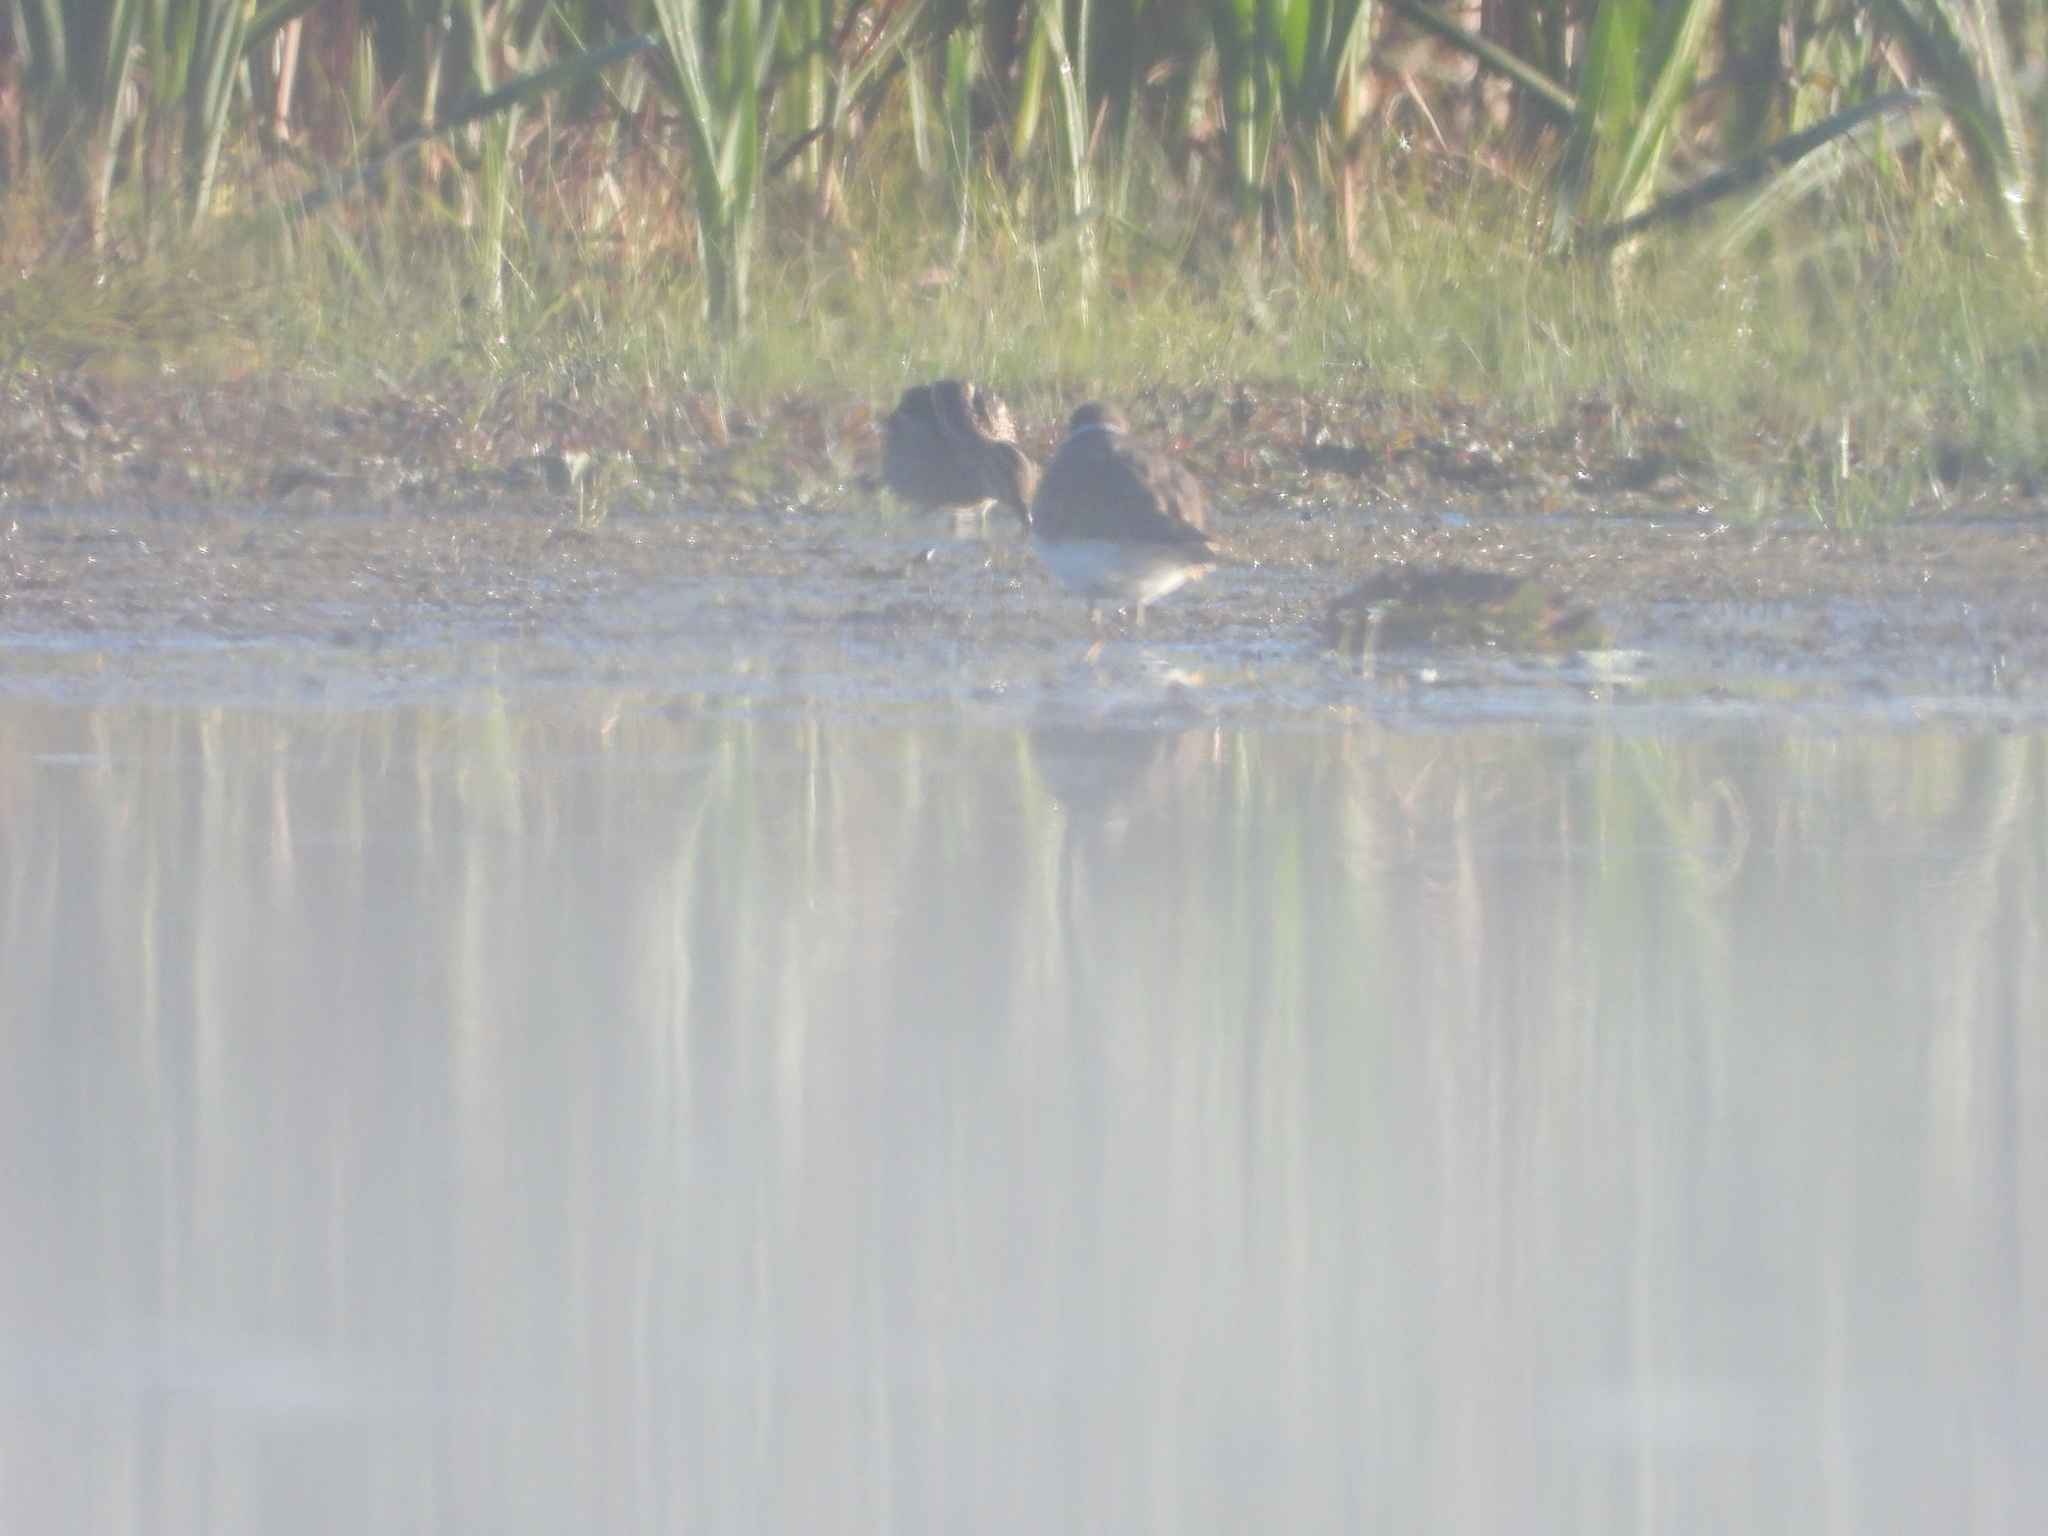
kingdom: Animalia
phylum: Chordata
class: Aves
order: Charadriiformes
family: Scolopacidae
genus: Tringa
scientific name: Tringa melanoleuca
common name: Greater yellowlegs
